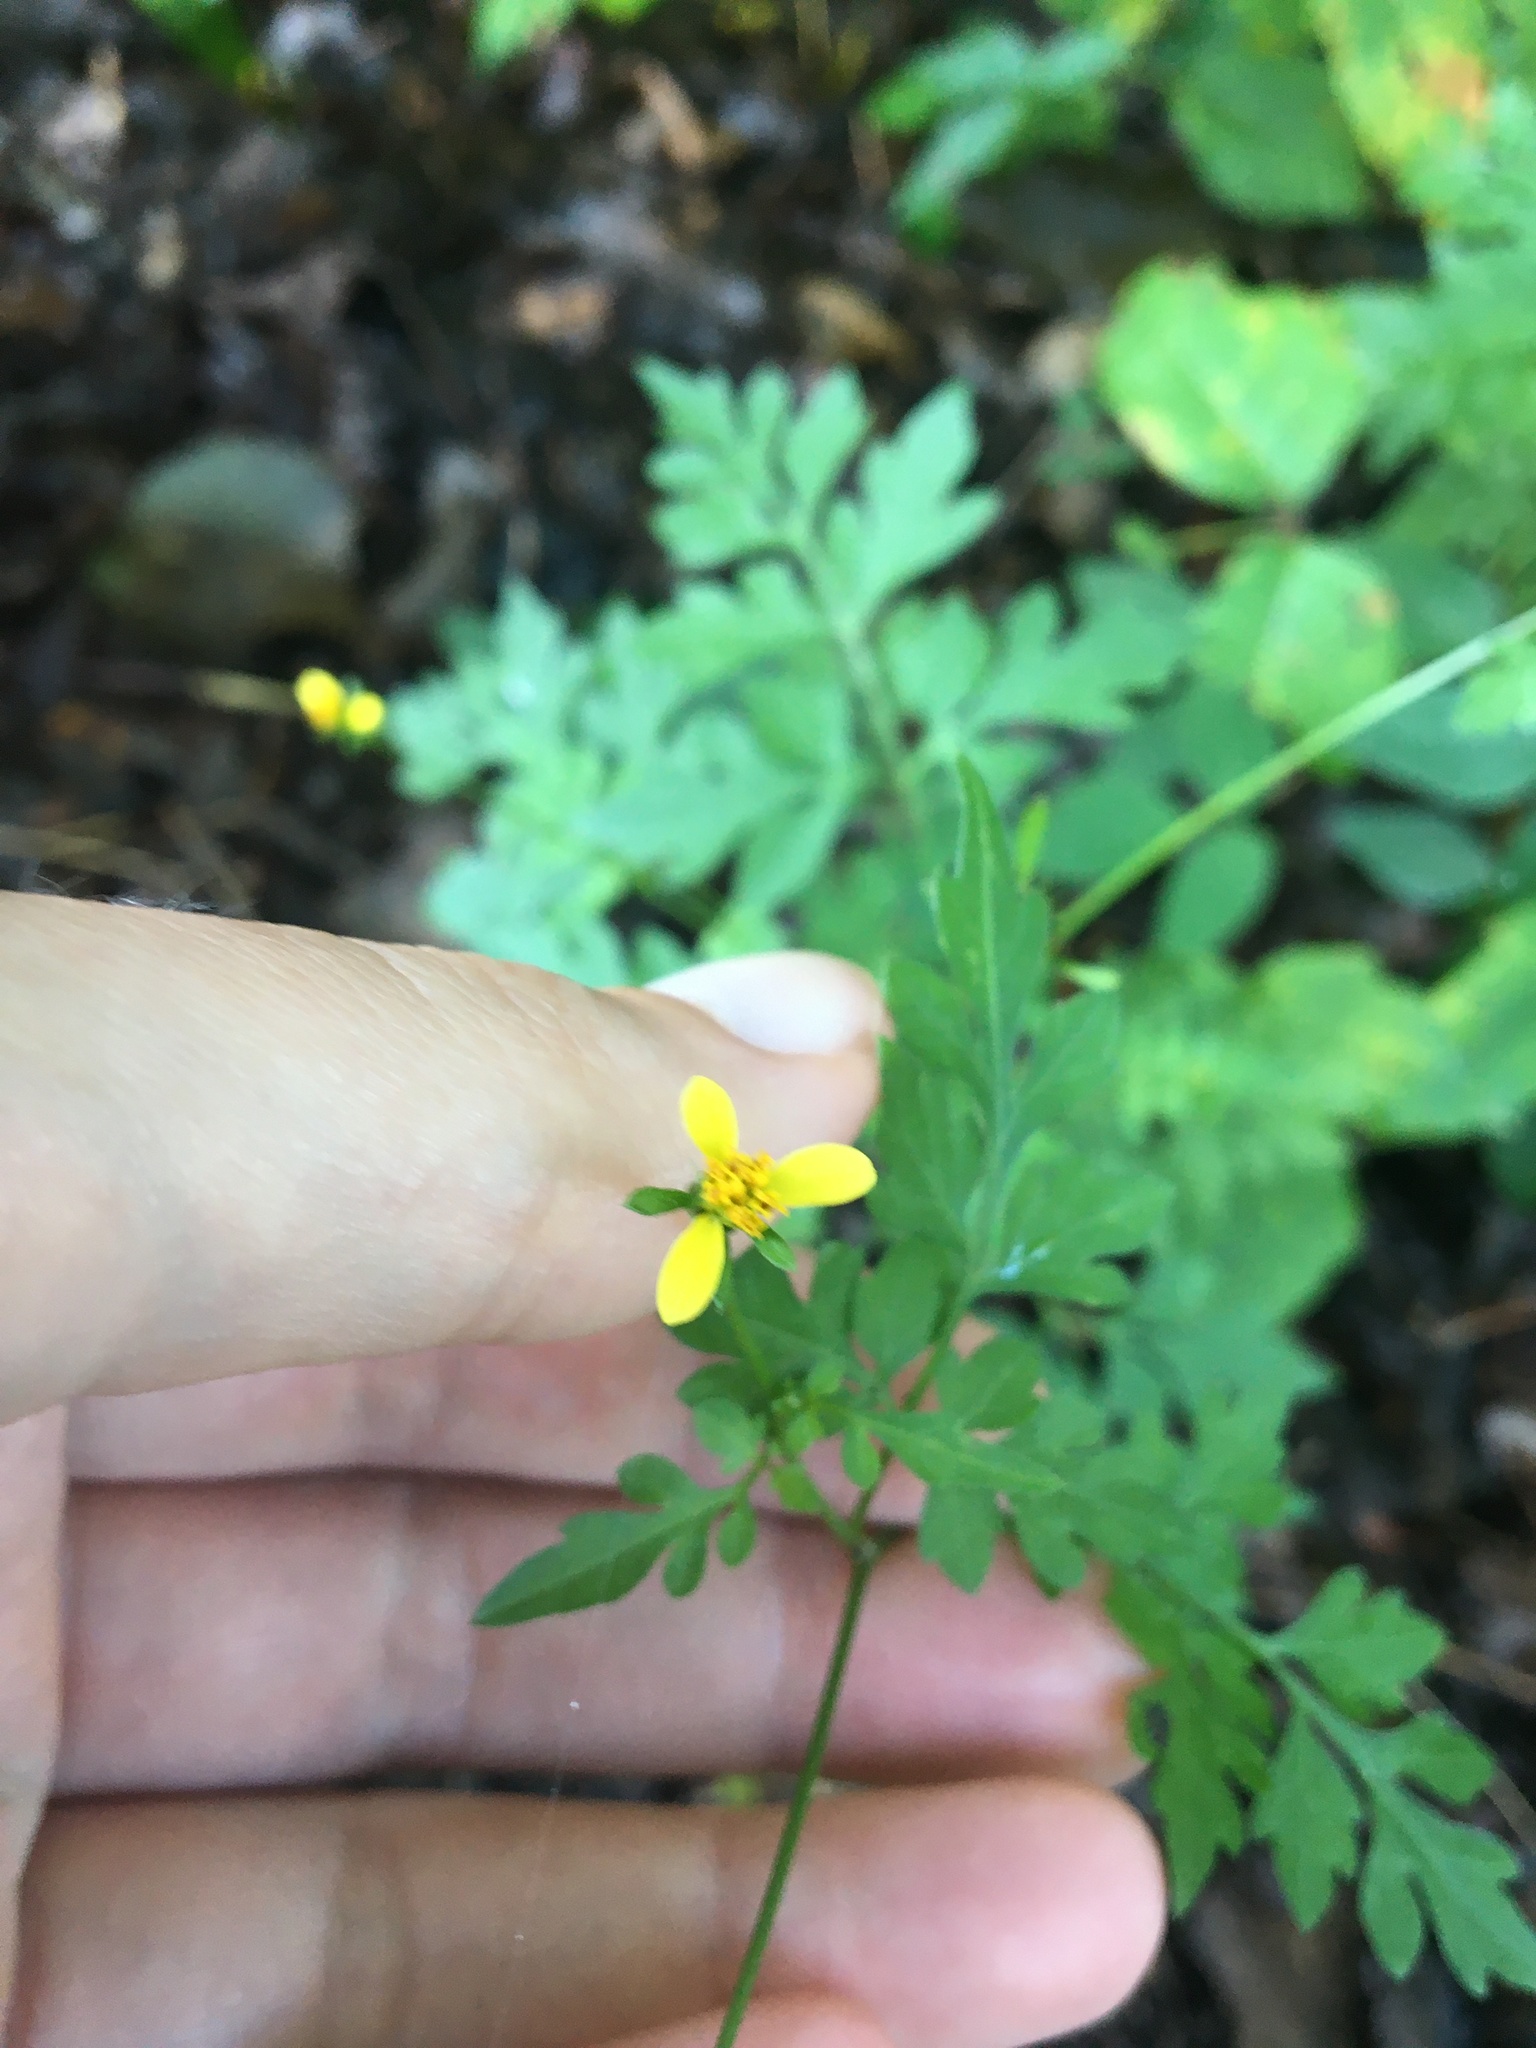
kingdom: Plantae
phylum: Tracheophyta
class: Magnoliopsida
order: Asterales
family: Asteraceae
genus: Bidens
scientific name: Bidens bipinnata
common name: Spanish-needles
